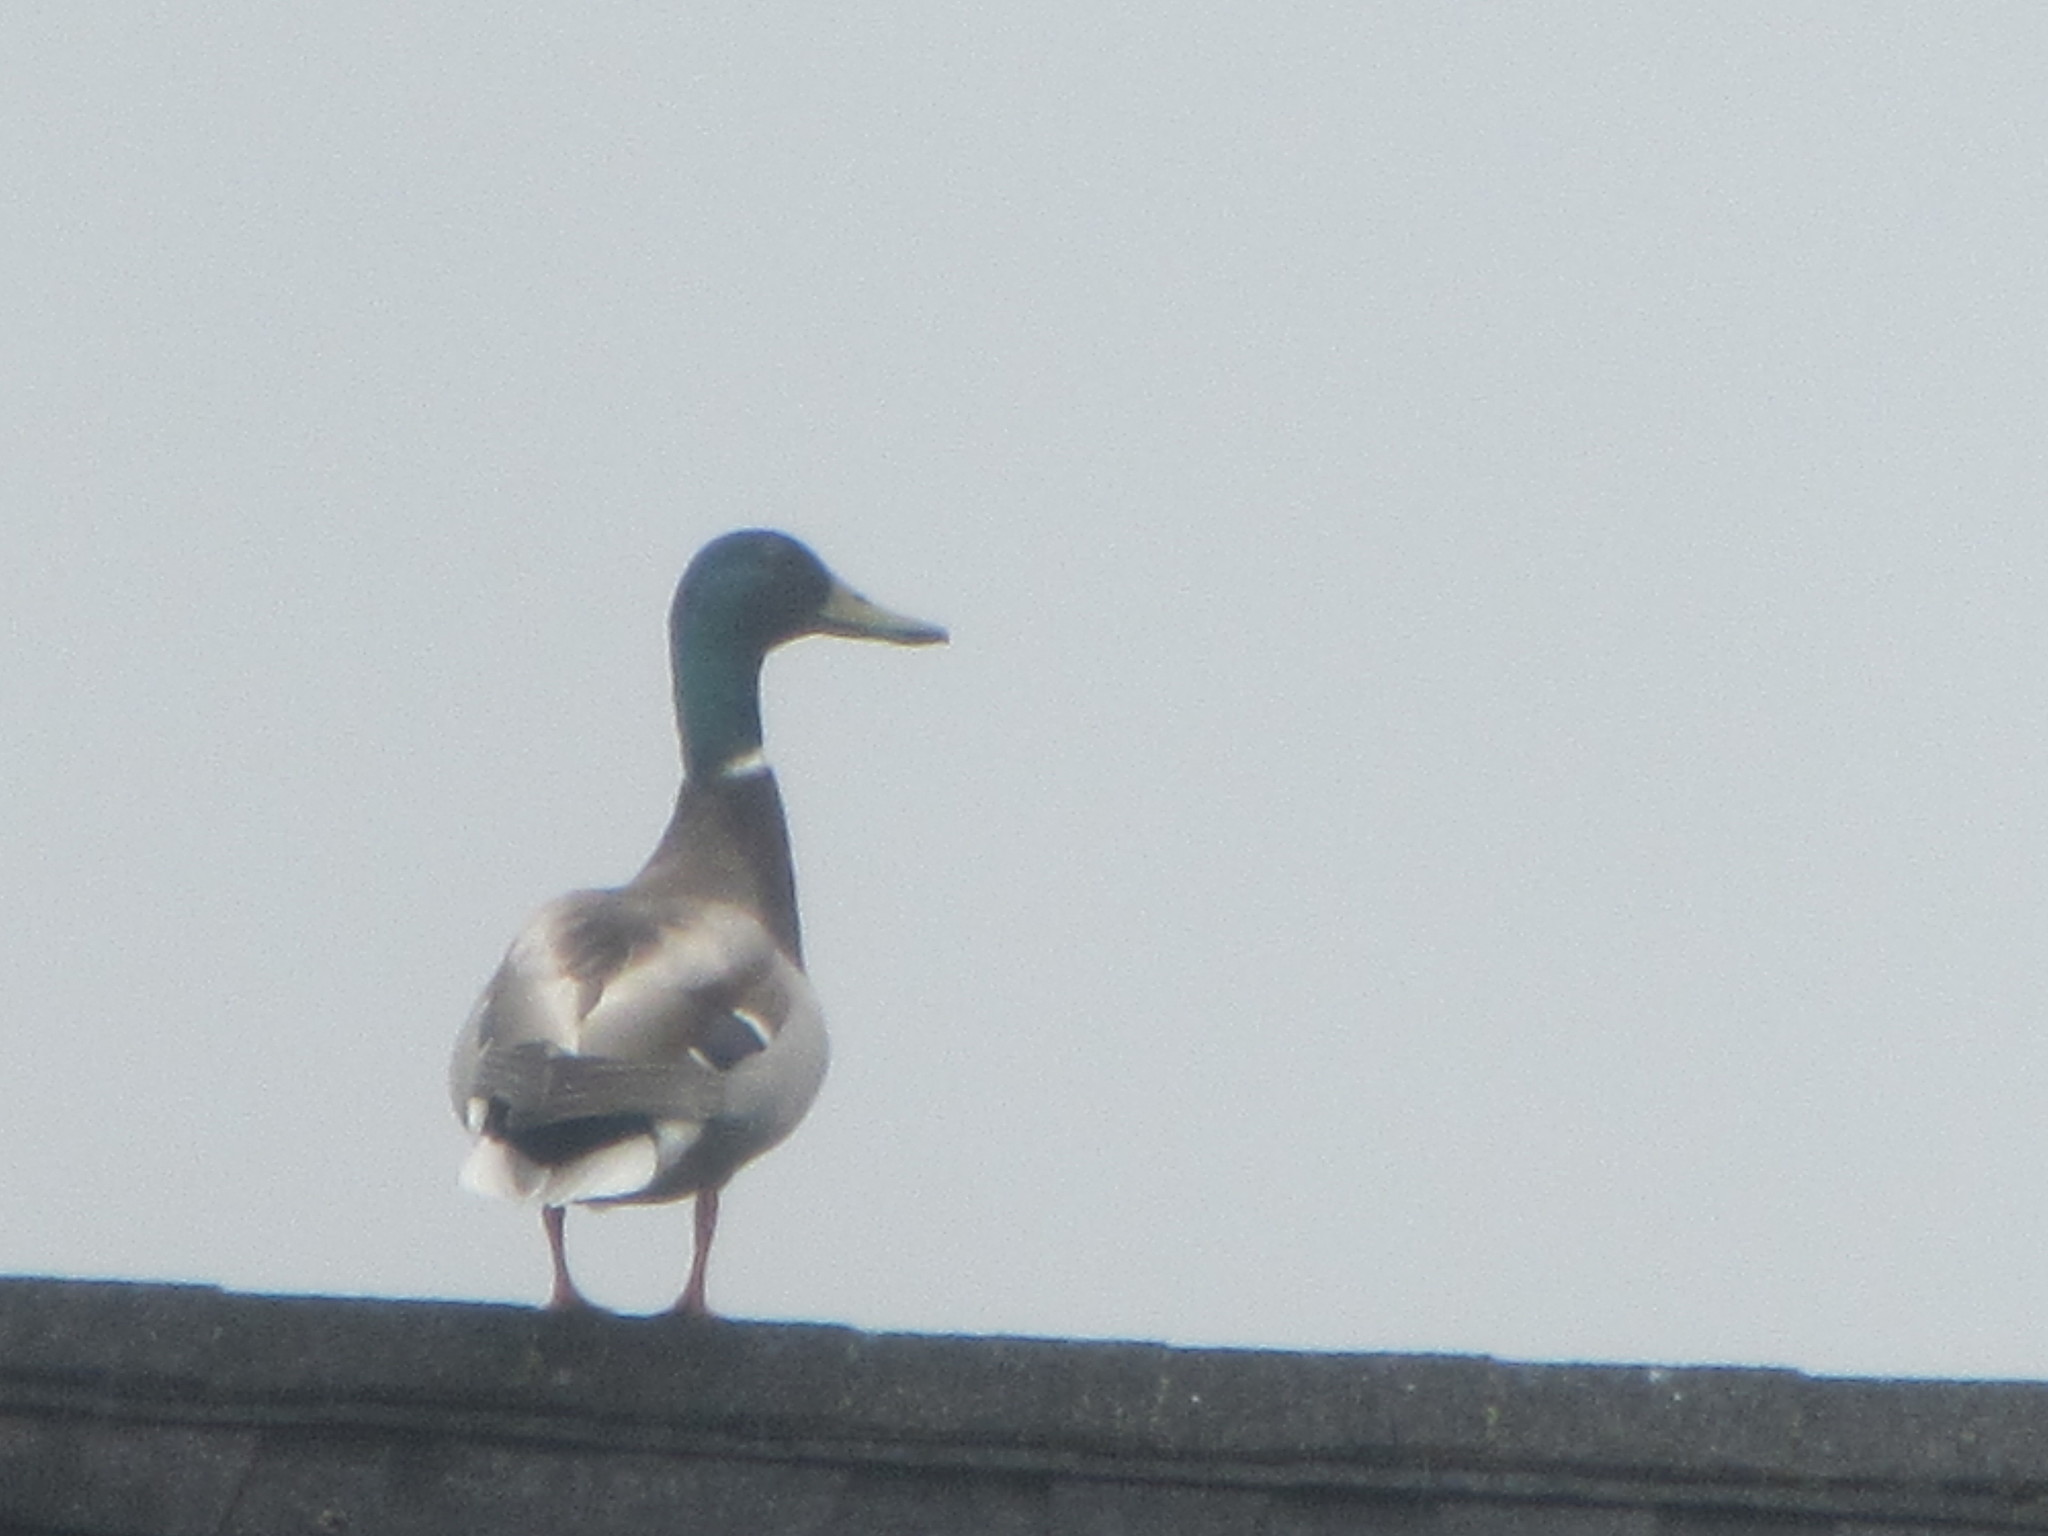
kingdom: Animalia
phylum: Chordata
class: Aves
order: Anseriformes
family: Anatidae
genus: Anas
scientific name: Anas platyrhynchos
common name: Mallard
